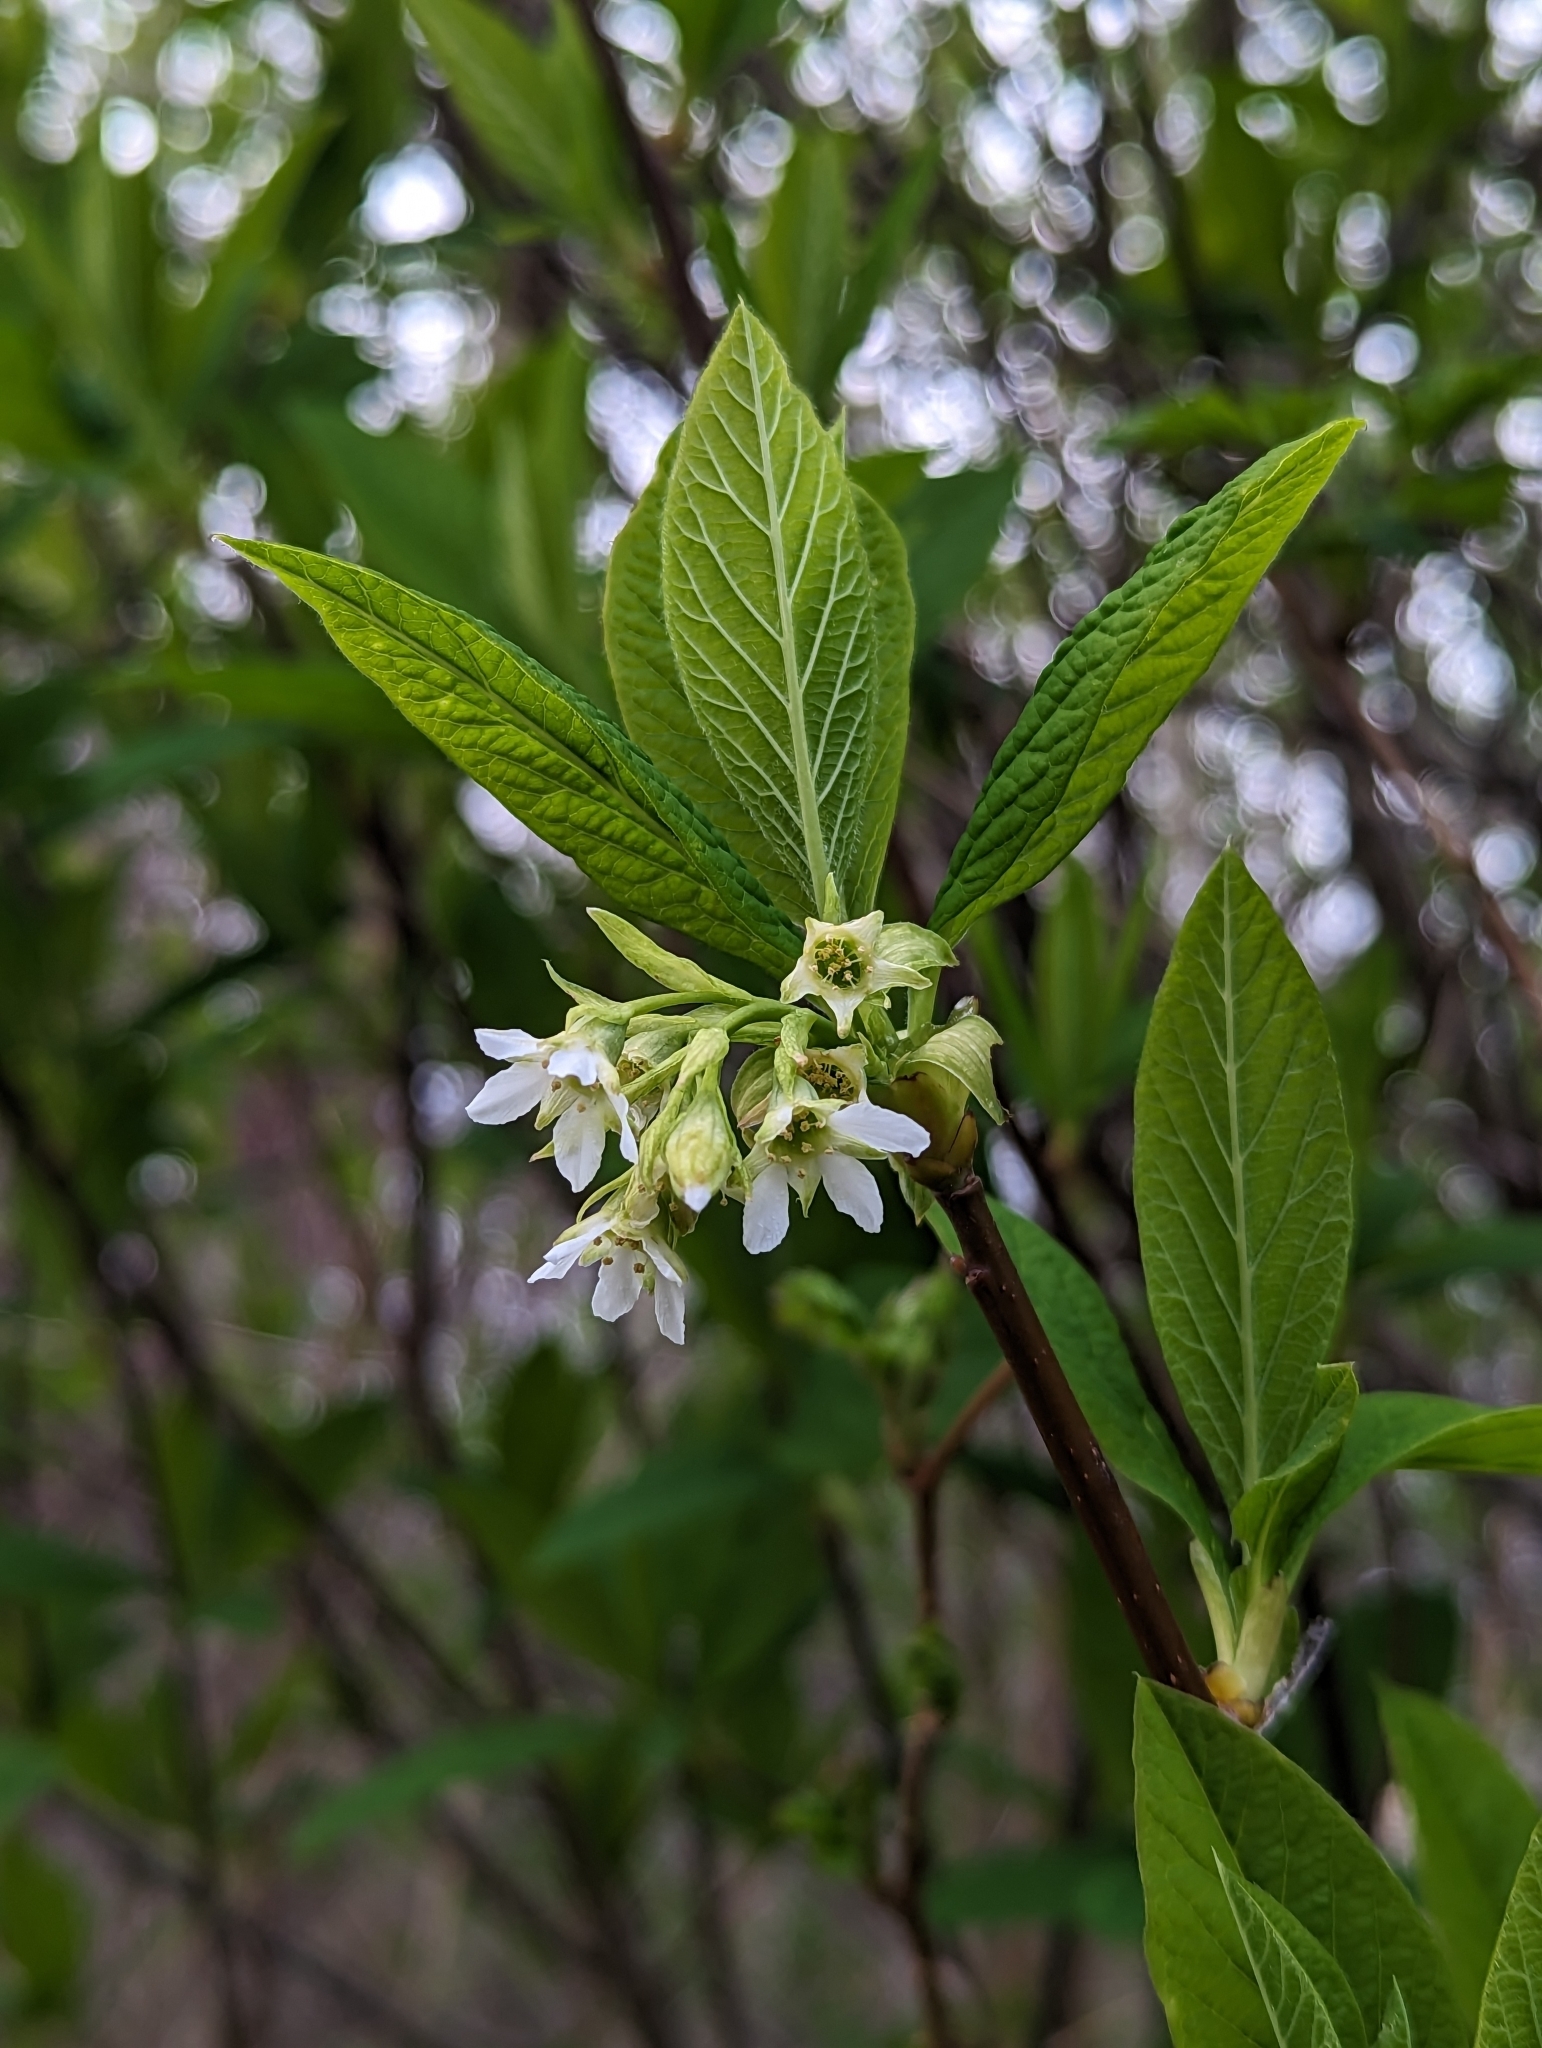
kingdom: Plantae
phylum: Tracheophyta
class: Magnoliopsida
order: Rosales
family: Rosaceae
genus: Oemleria
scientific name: Oemleria cerasiformis
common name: Osoberry
